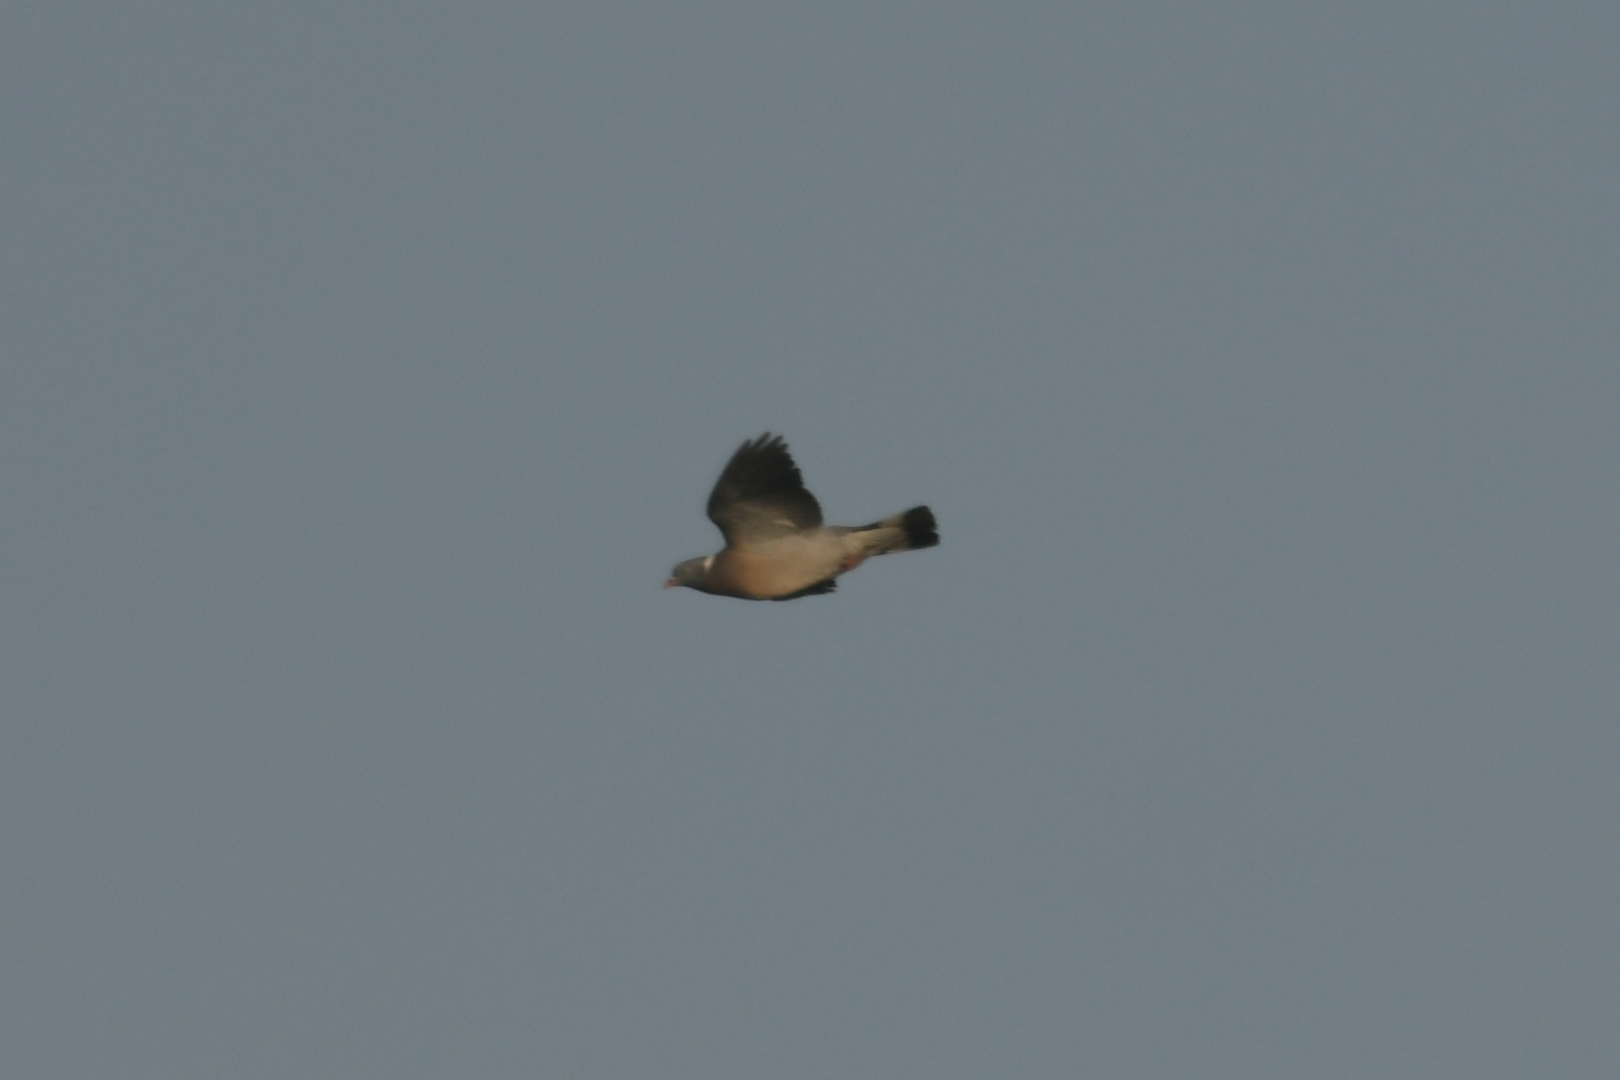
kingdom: Animalia
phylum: Chordata
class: Aves
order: Columbiformes
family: Columbidae
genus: Columba
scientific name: Columba palumbus
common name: Common wood pigeon
